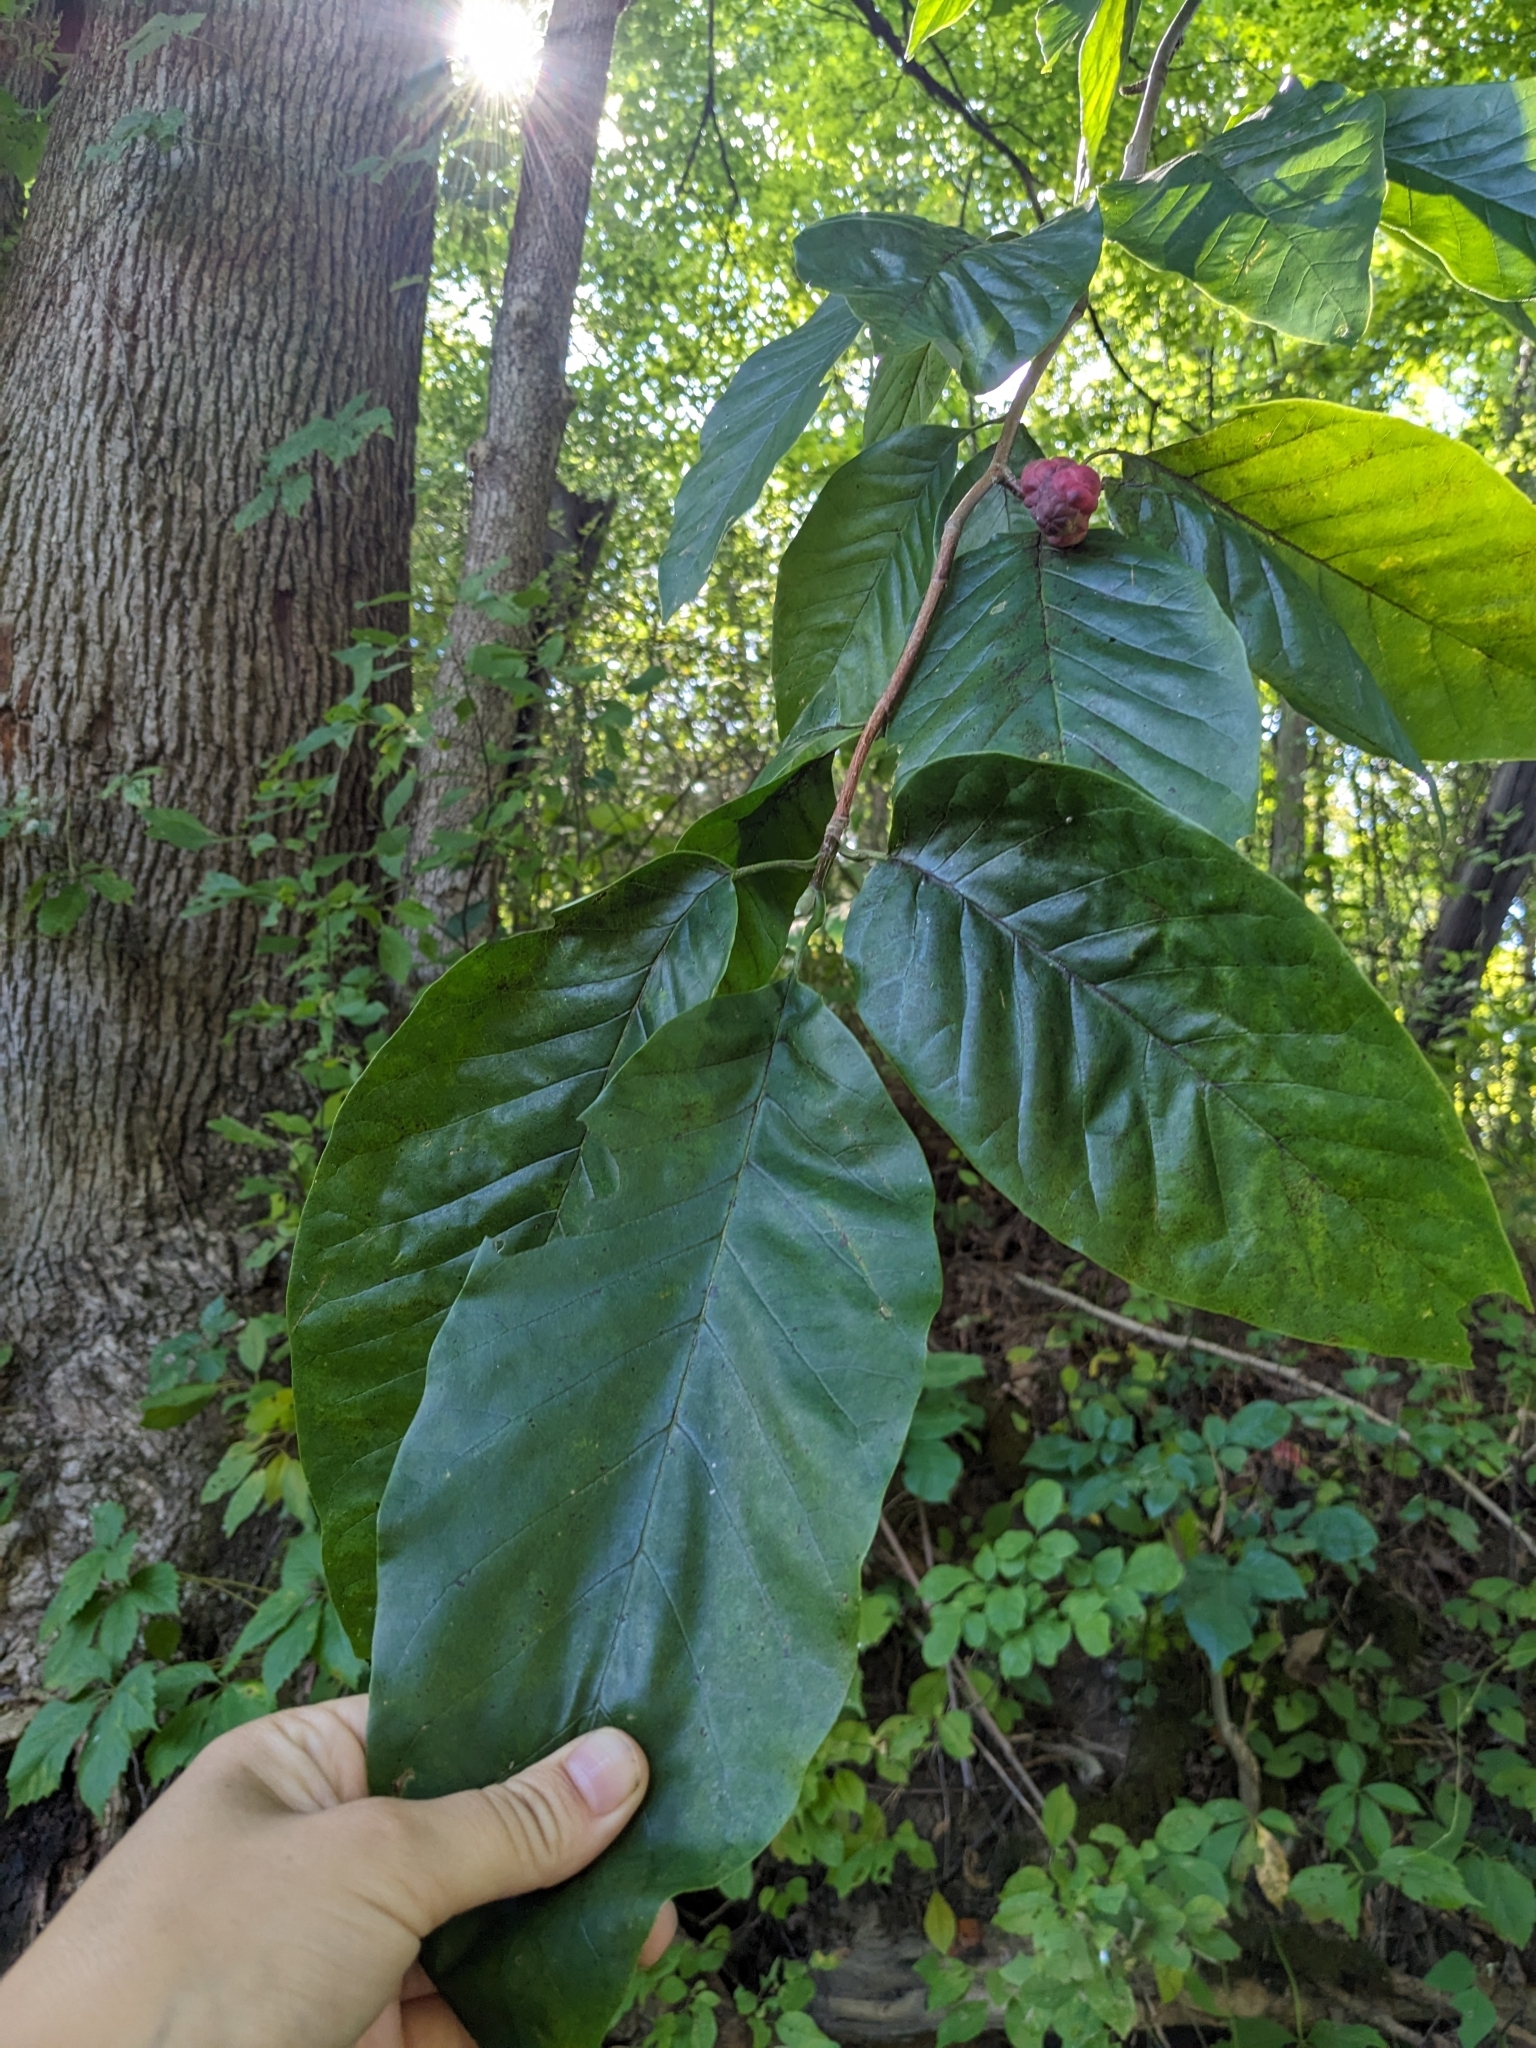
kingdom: Plantae
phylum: Tracheophyta
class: Magnoliopsida
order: Magnoliales
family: Magnoliaceae
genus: Magnolia
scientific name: Magnolia acuminata
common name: Cucumber magnolia
